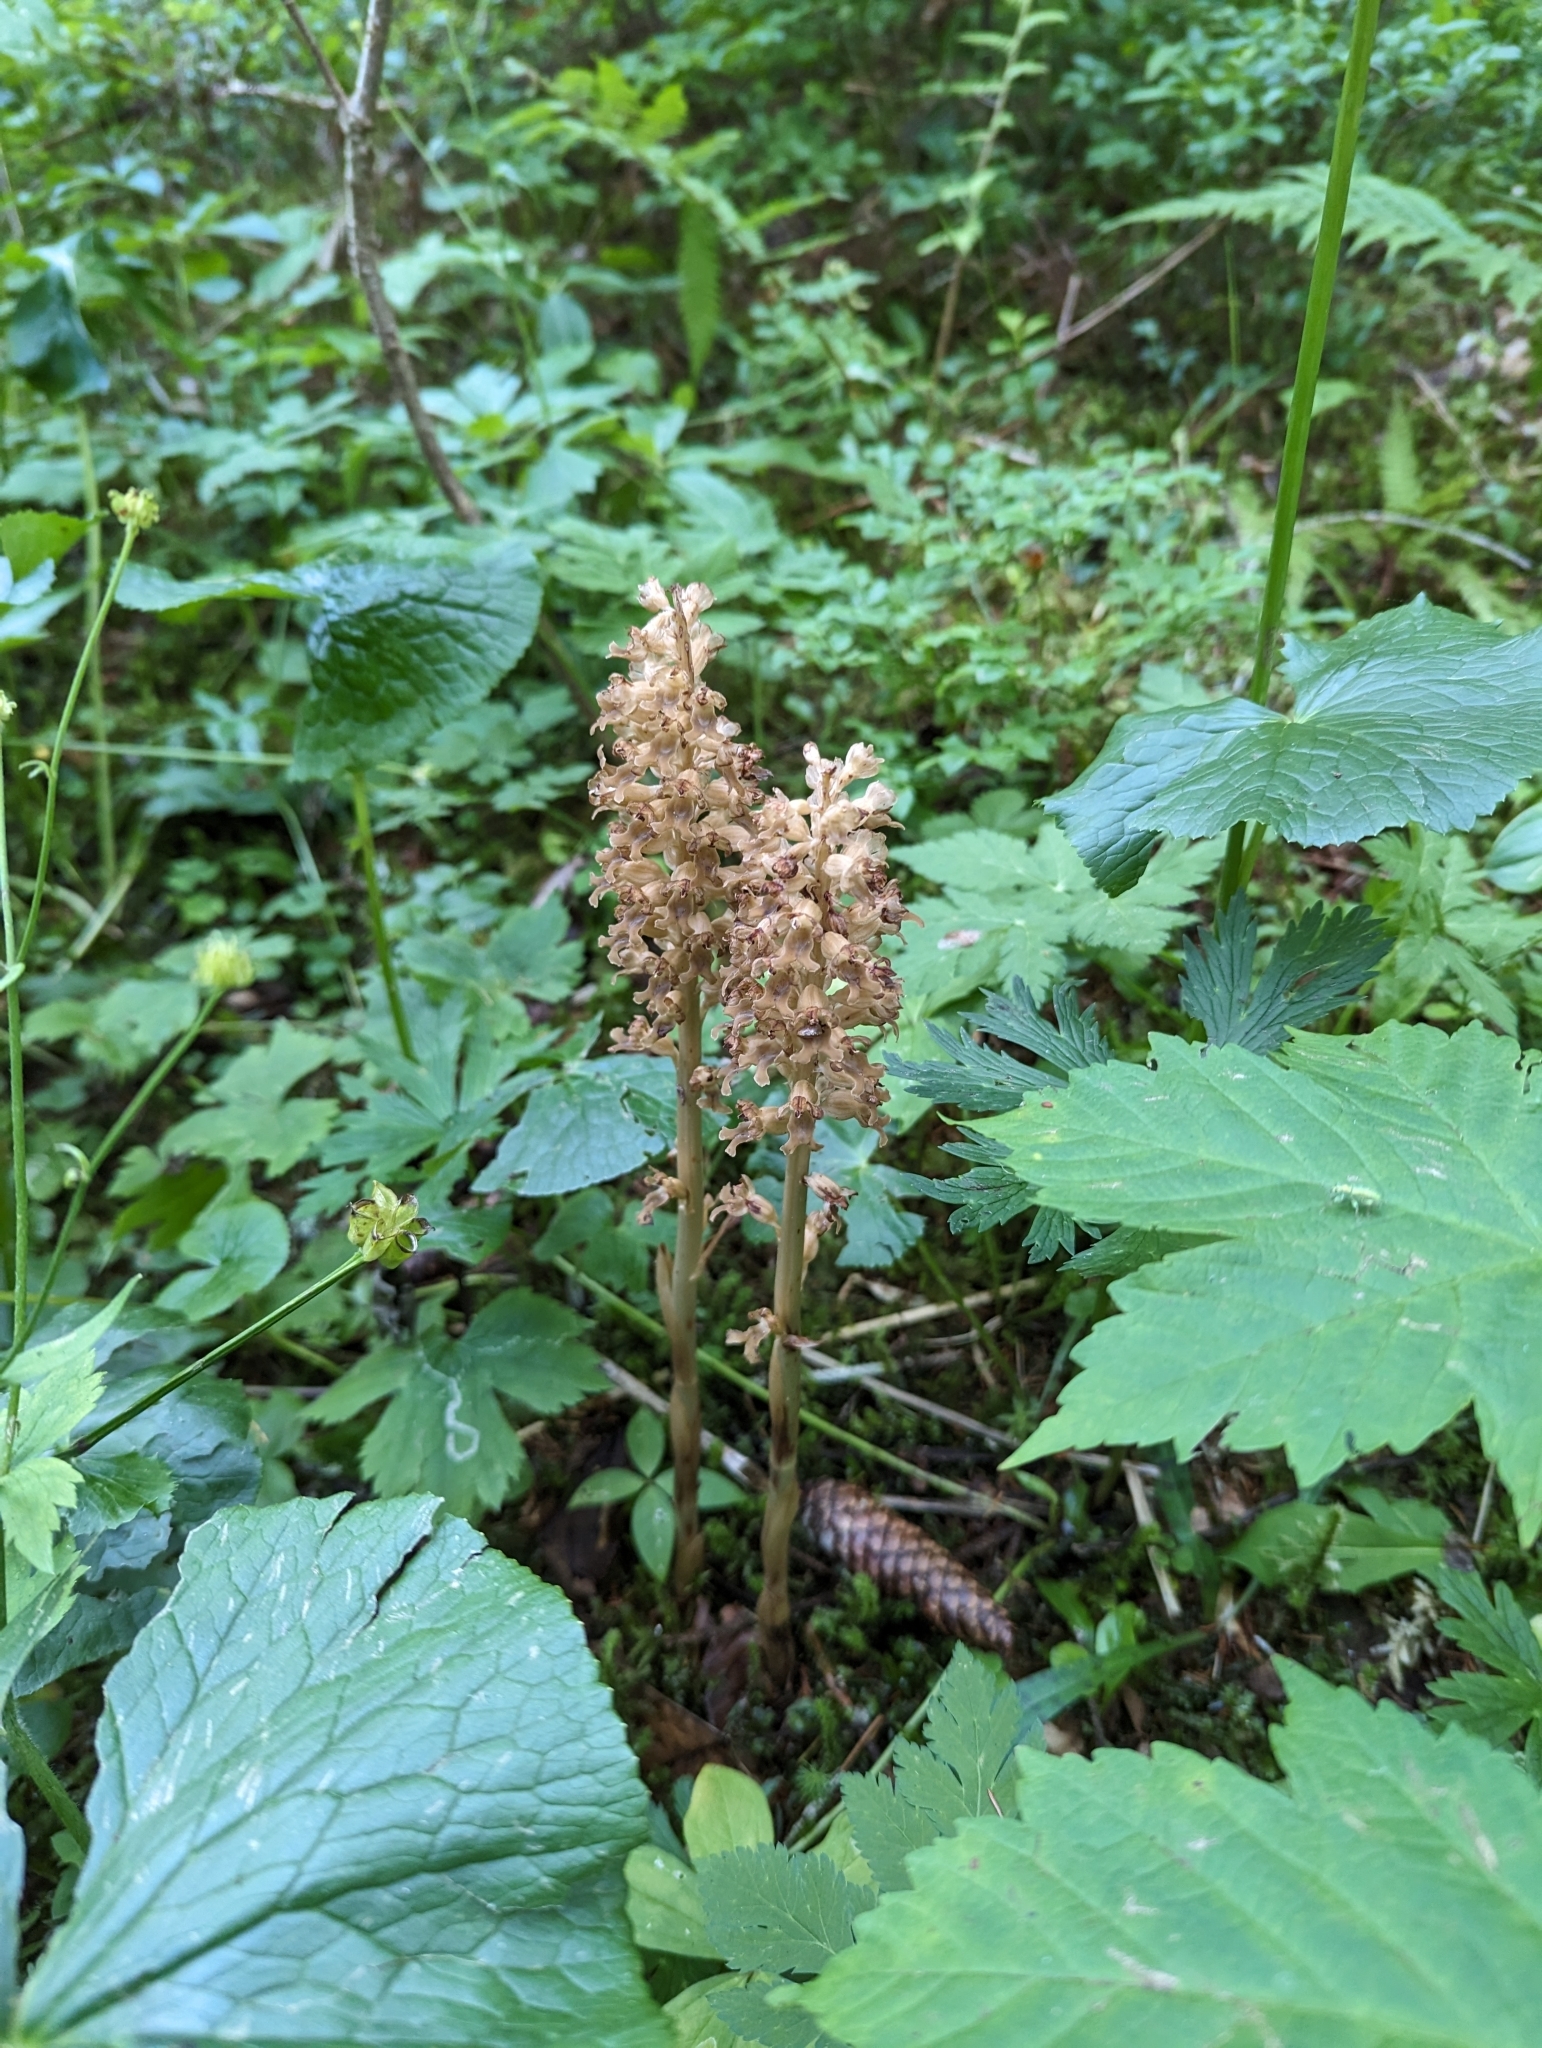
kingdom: Plantae
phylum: Tracheophyta
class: Liliopsida
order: Asparagales
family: Orchidaceae
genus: Neottia
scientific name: Neottia nidus-avis
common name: Bird's-nest orchid
